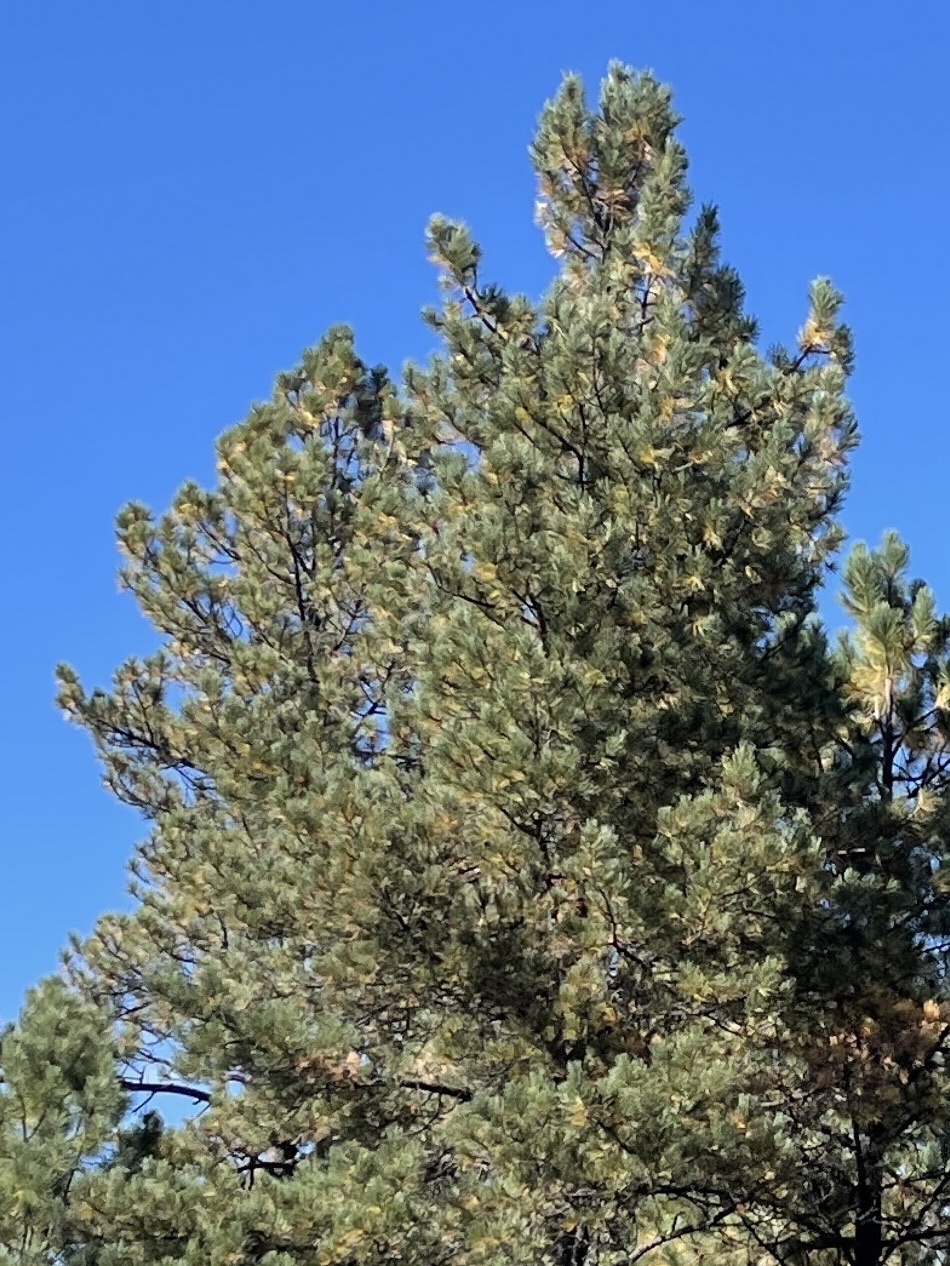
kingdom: Plantae
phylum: Tracheophyta
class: Pinopsida
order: Pinales
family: Pinaceae
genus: Pinus
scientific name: Pinus ponderosa
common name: Western yellow-pine
